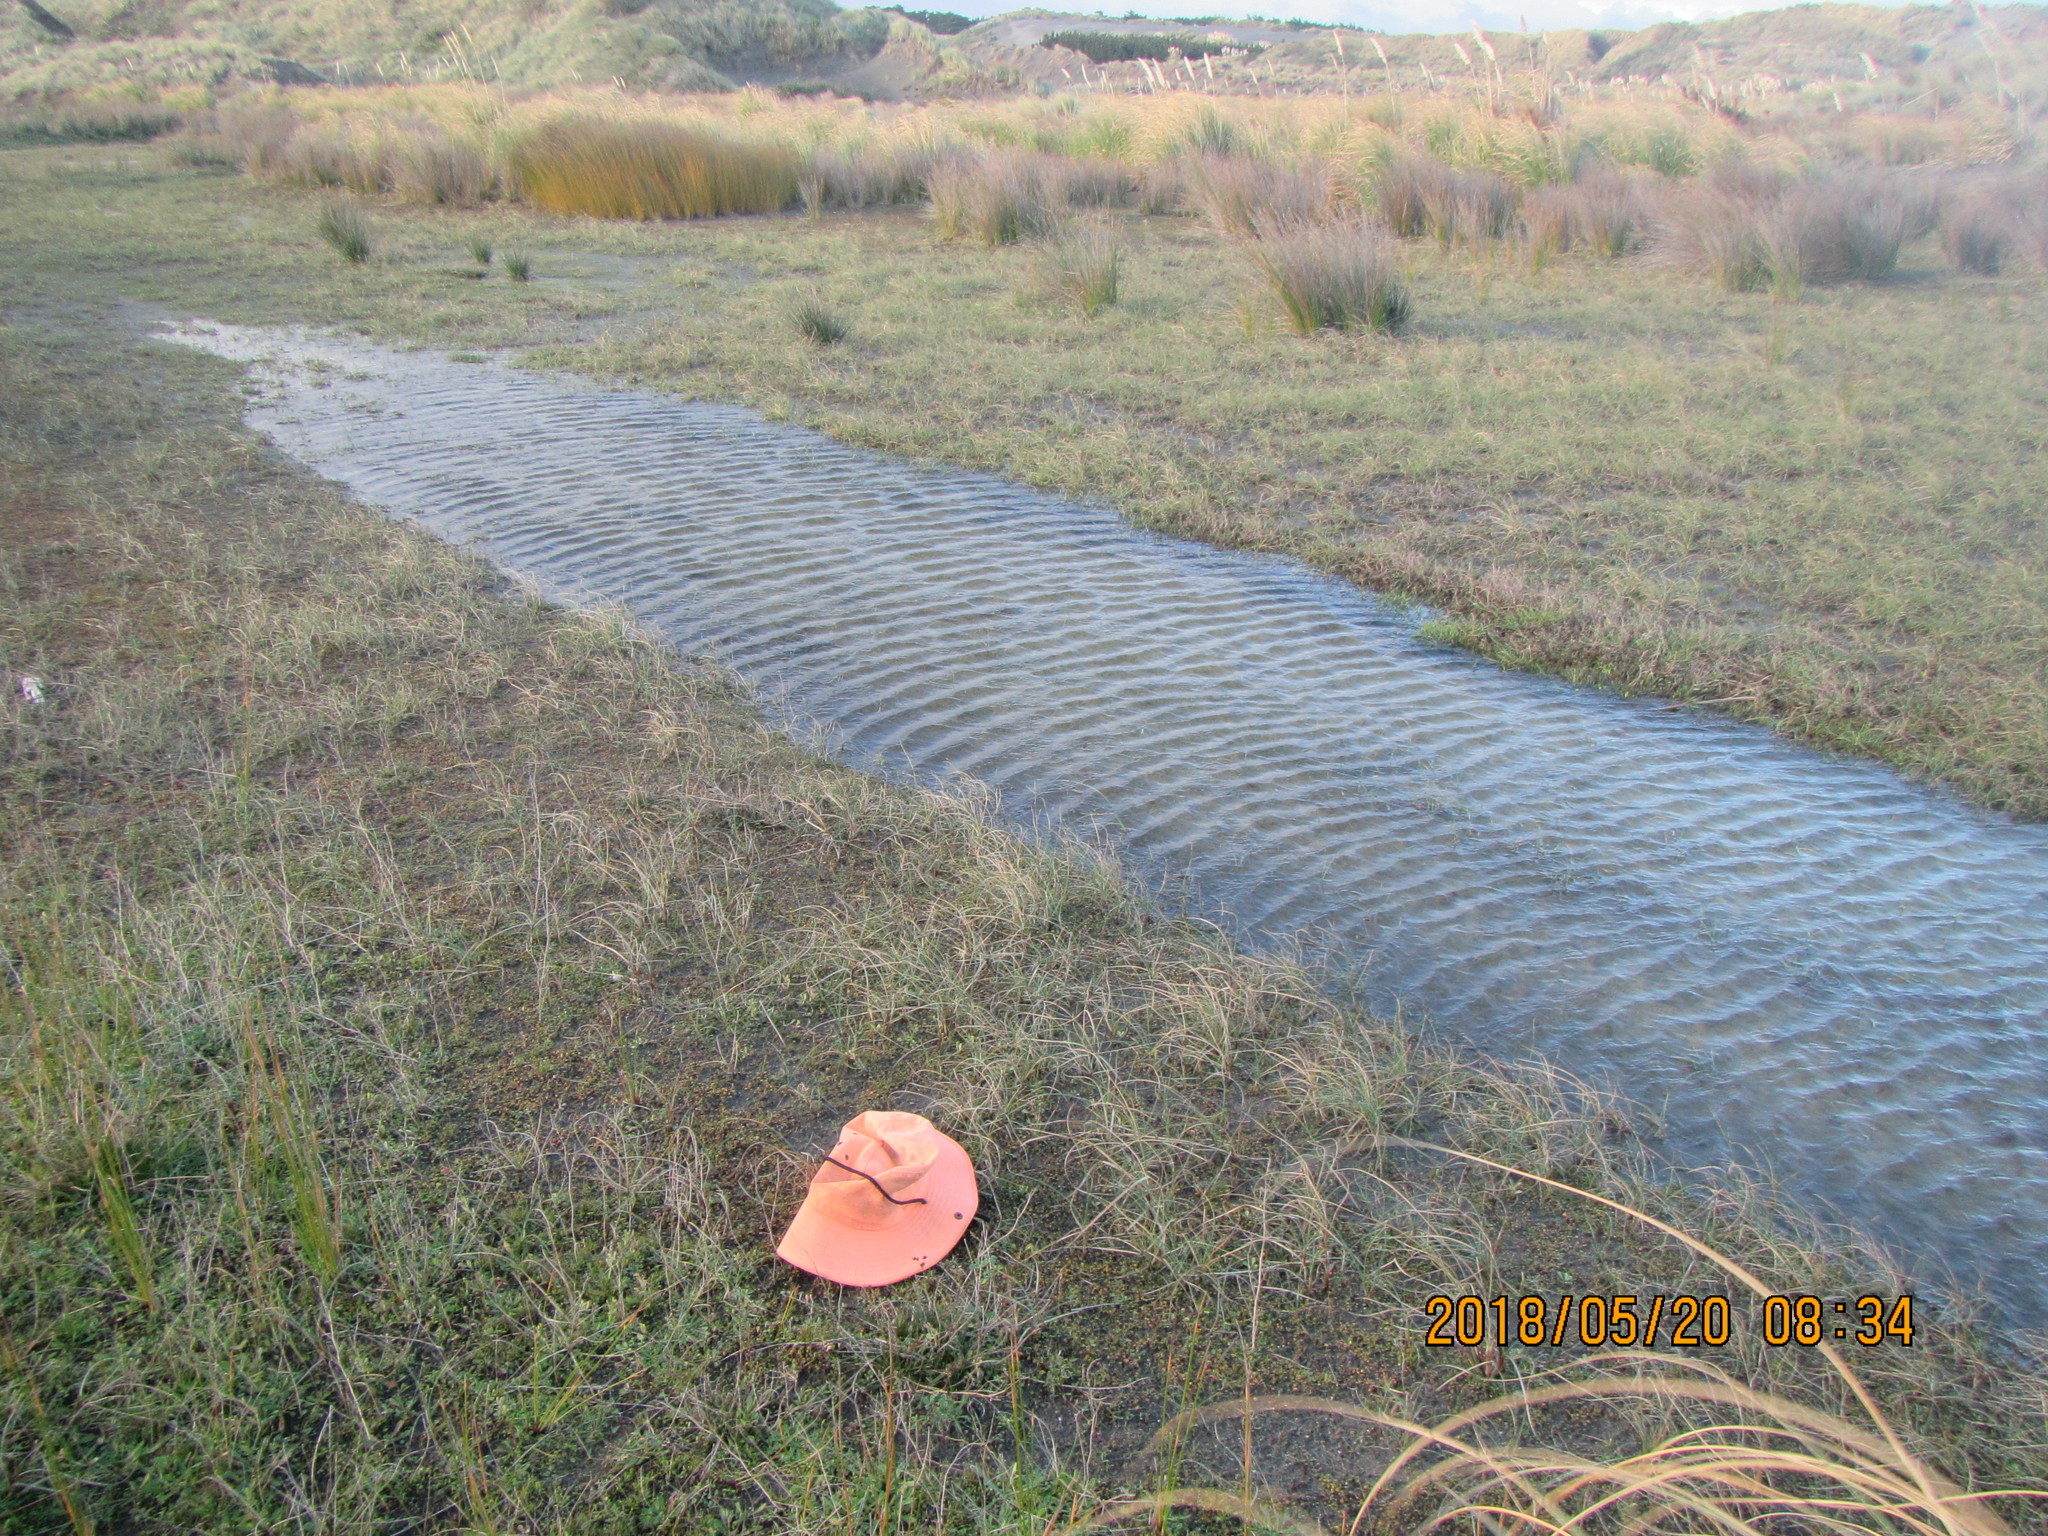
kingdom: Plantae
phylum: Tracheophyta
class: Liliopsida
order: Poales
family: Juncaceae
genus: Juncus
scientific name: Juncus articulatus
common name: Jointed rush
